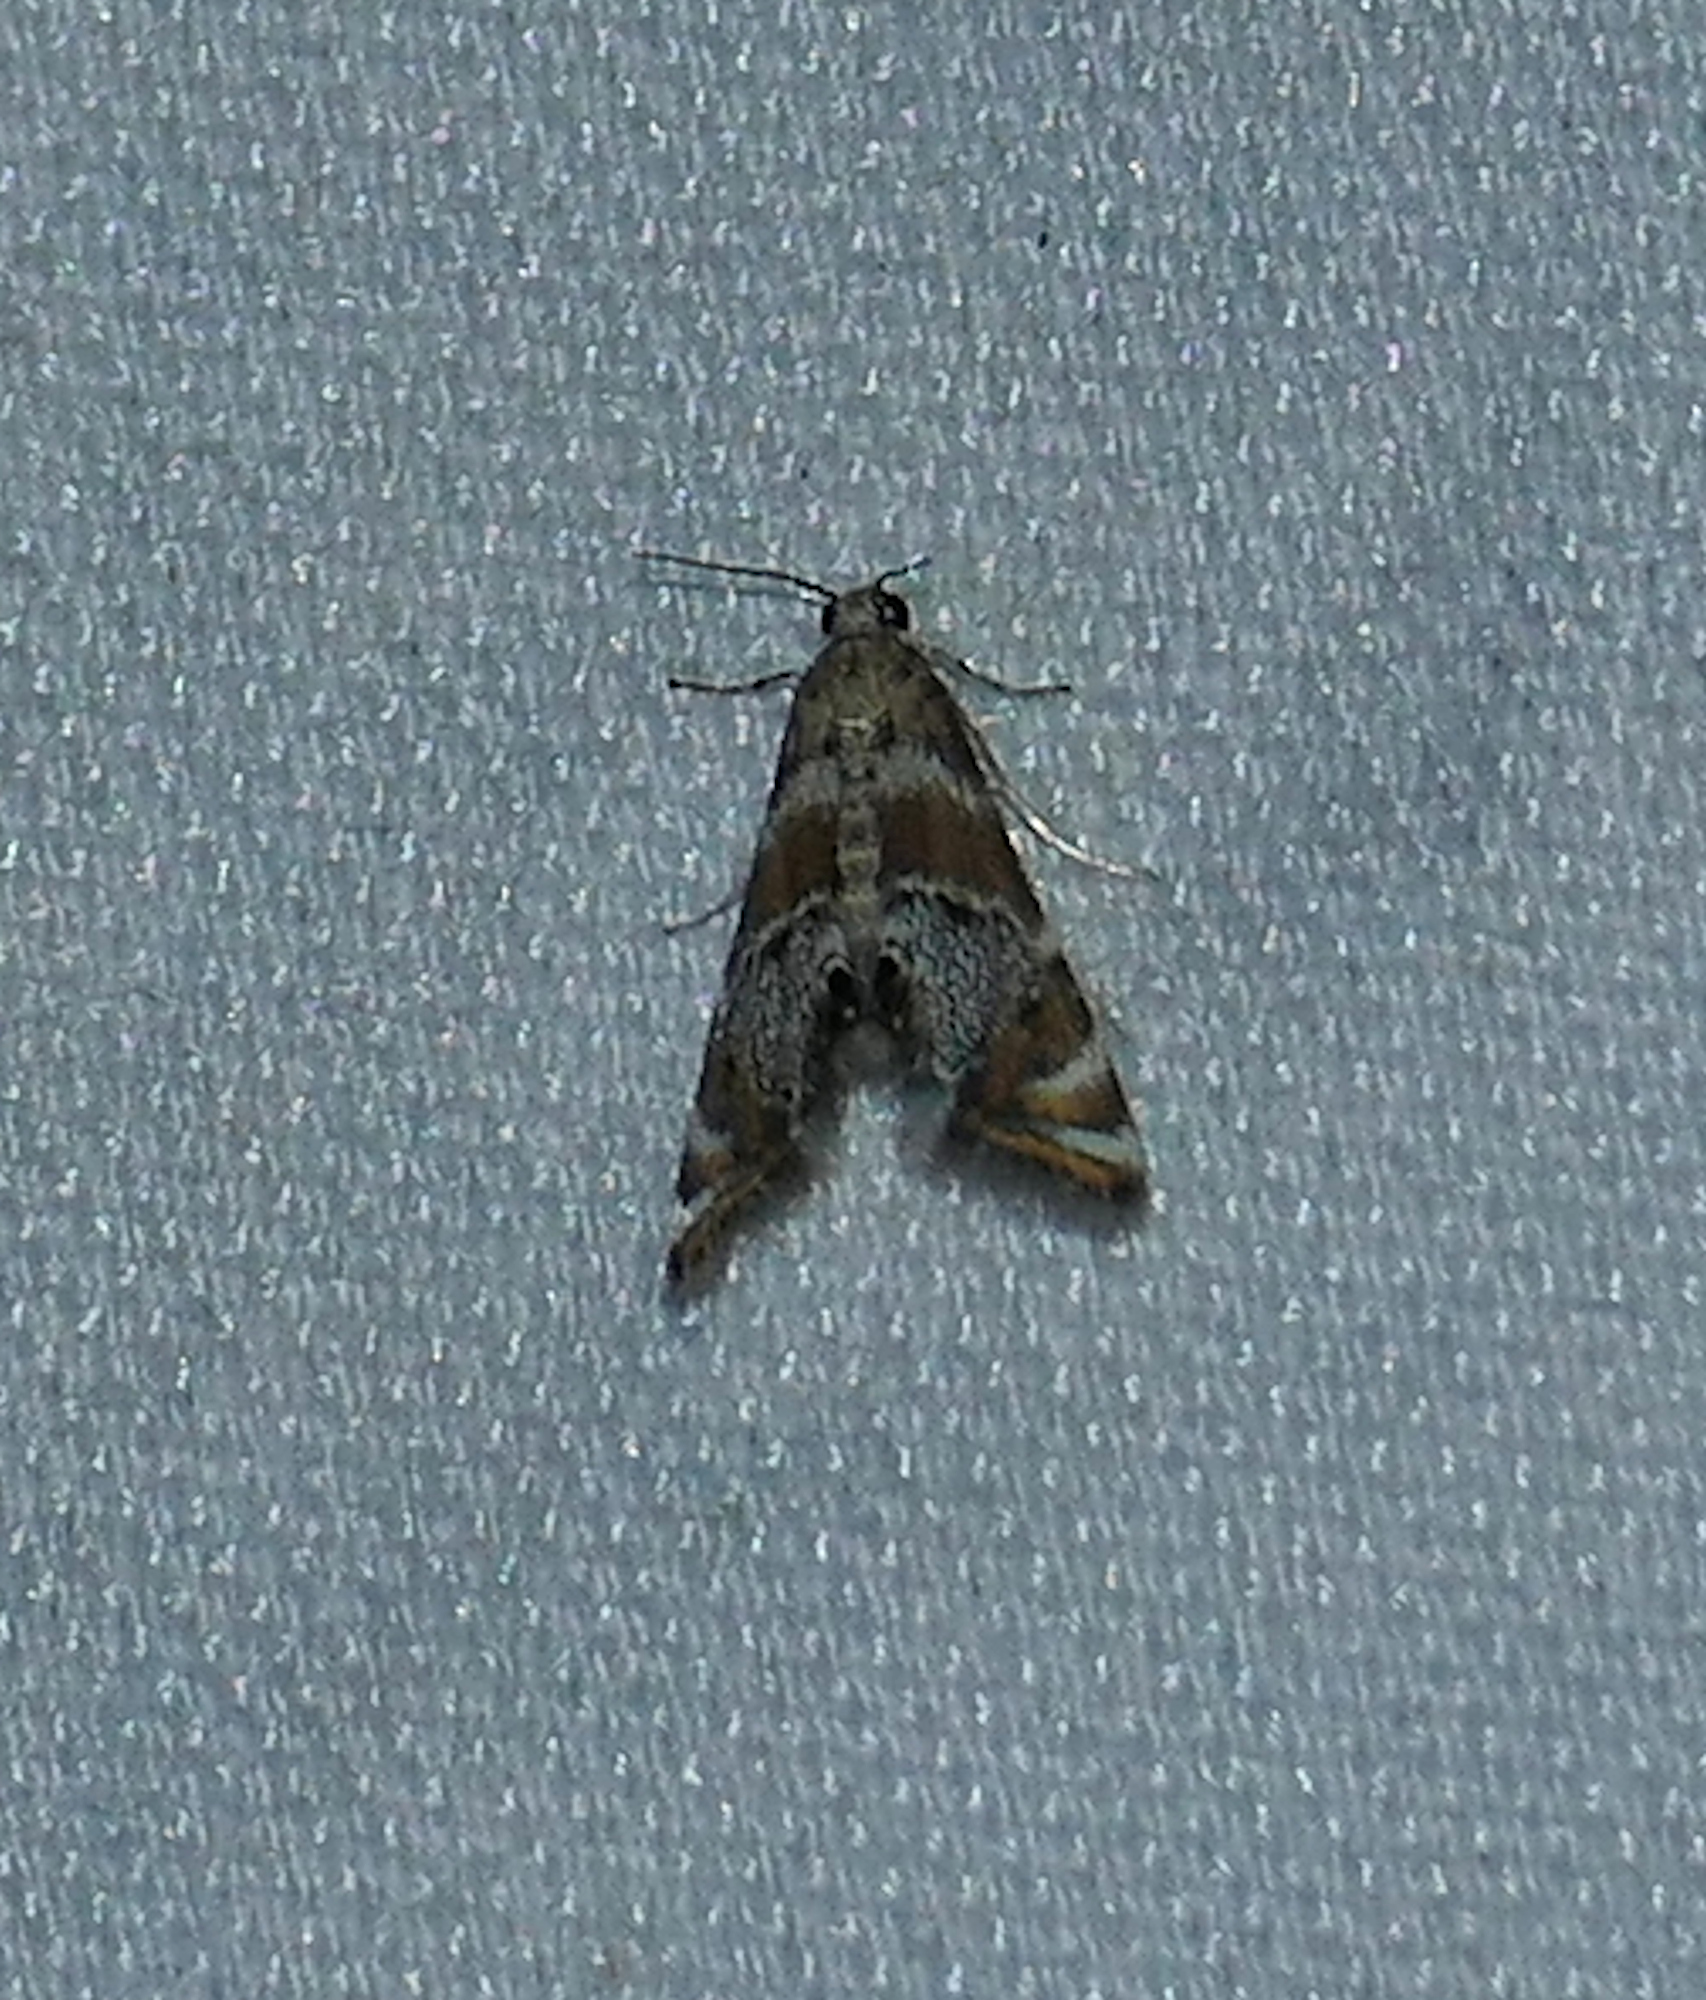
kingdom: Animalia
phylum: Arthropoda
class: Insecta
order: Lepidoptera
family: Crambidae
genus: Petrophila
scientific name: Petrophila longipennis
